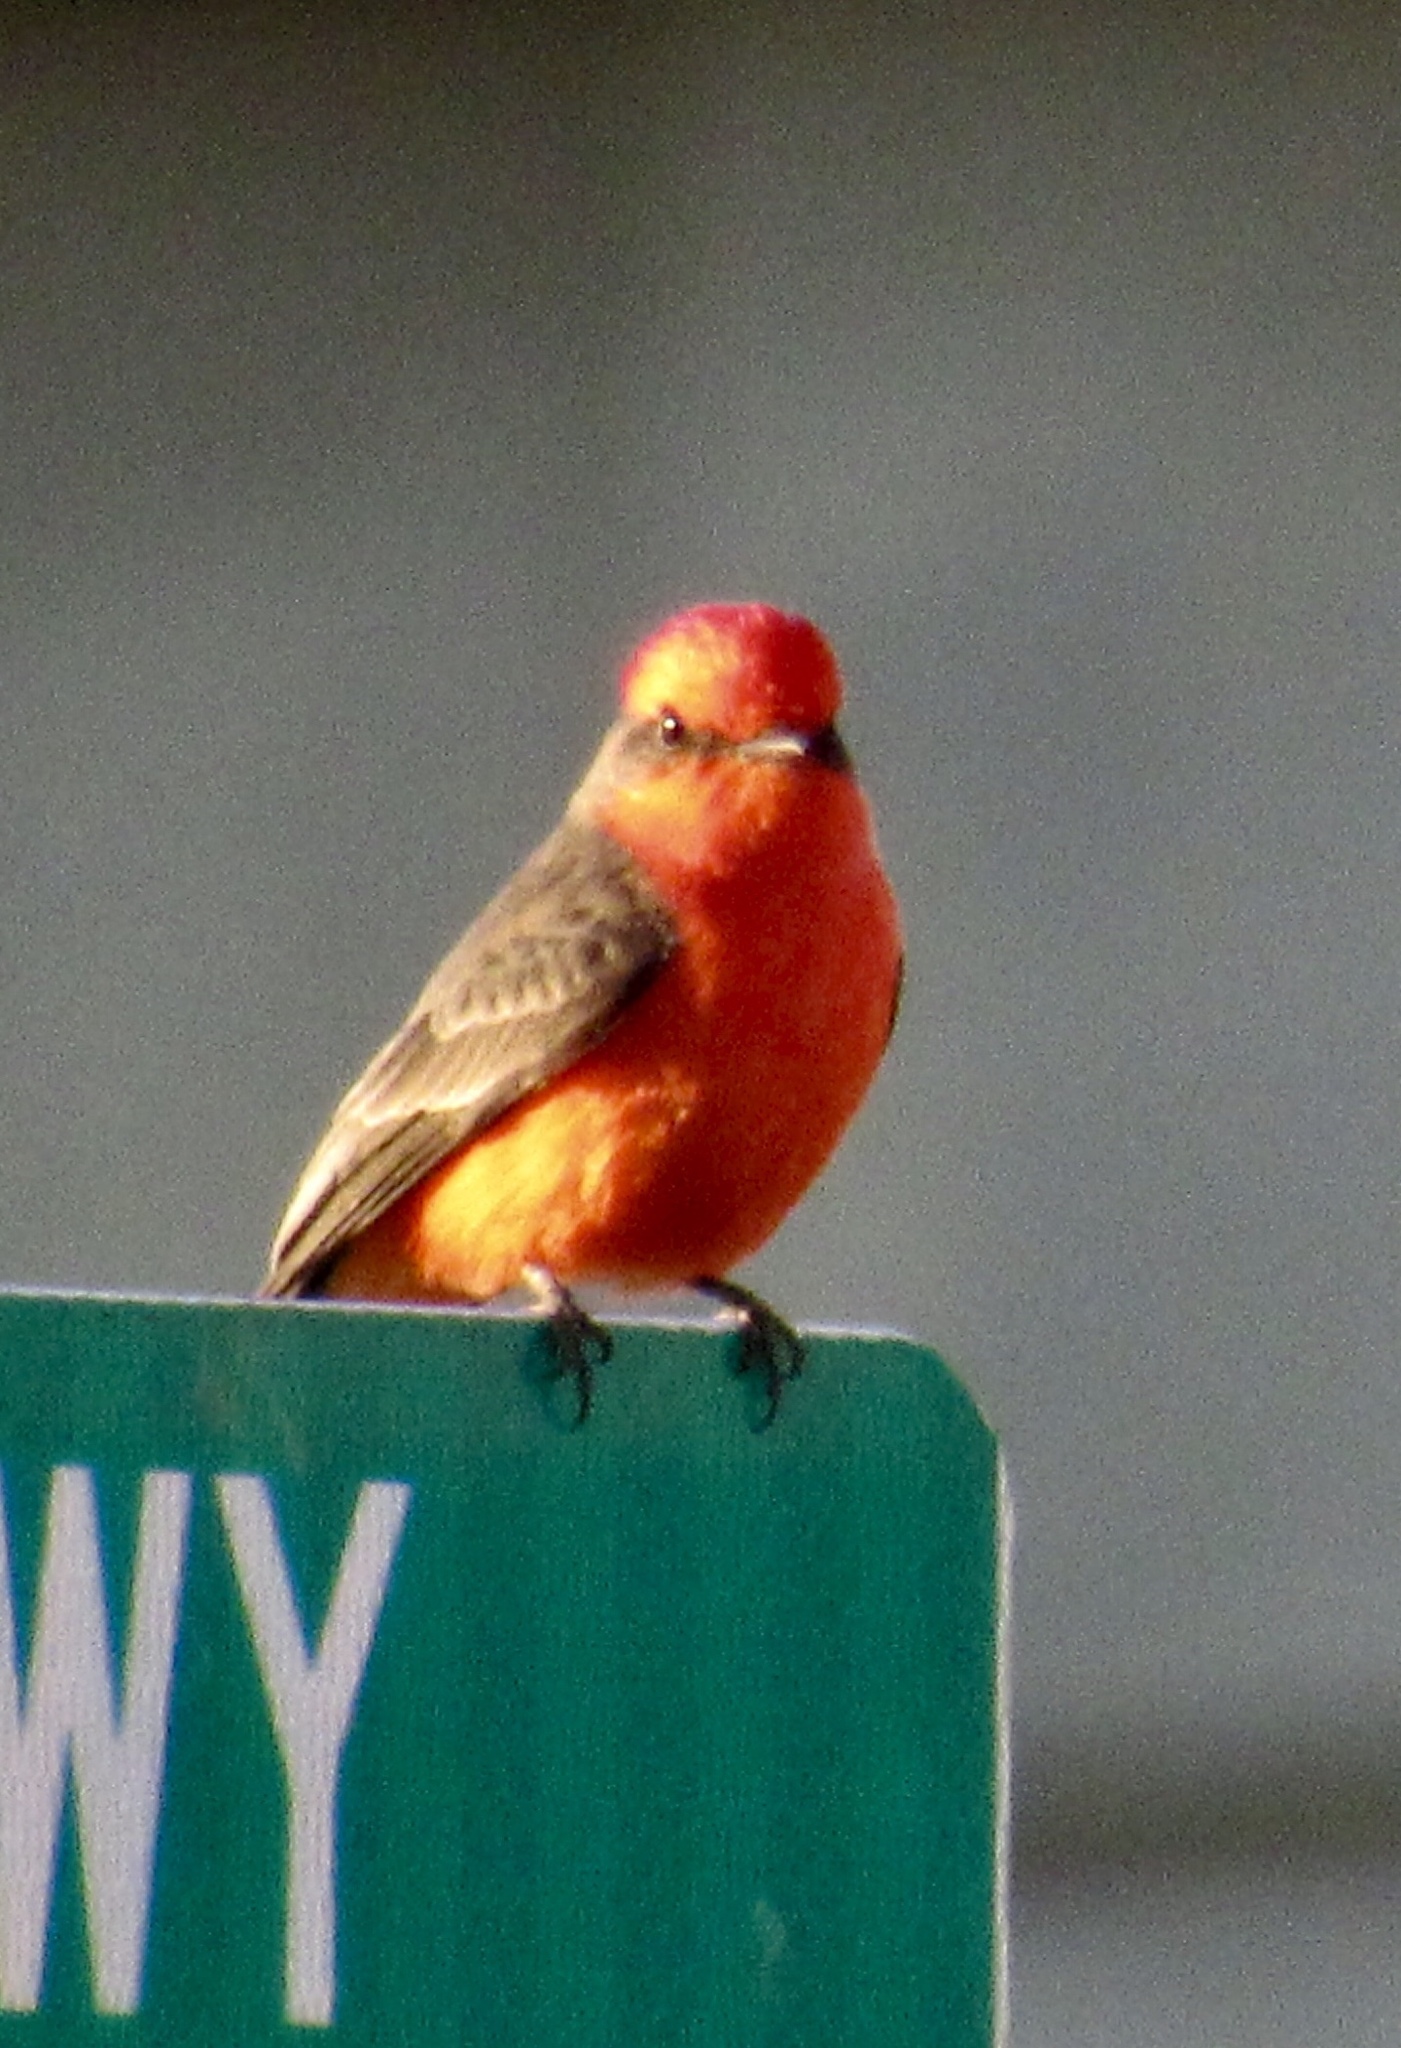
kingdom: Animalia
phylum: Chordata
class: Aves
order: Passeriformes
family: Tyrannidae
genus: Pyrocephalus
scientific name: Pyrocephalus rubinus
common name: Vermilion flycatcher
